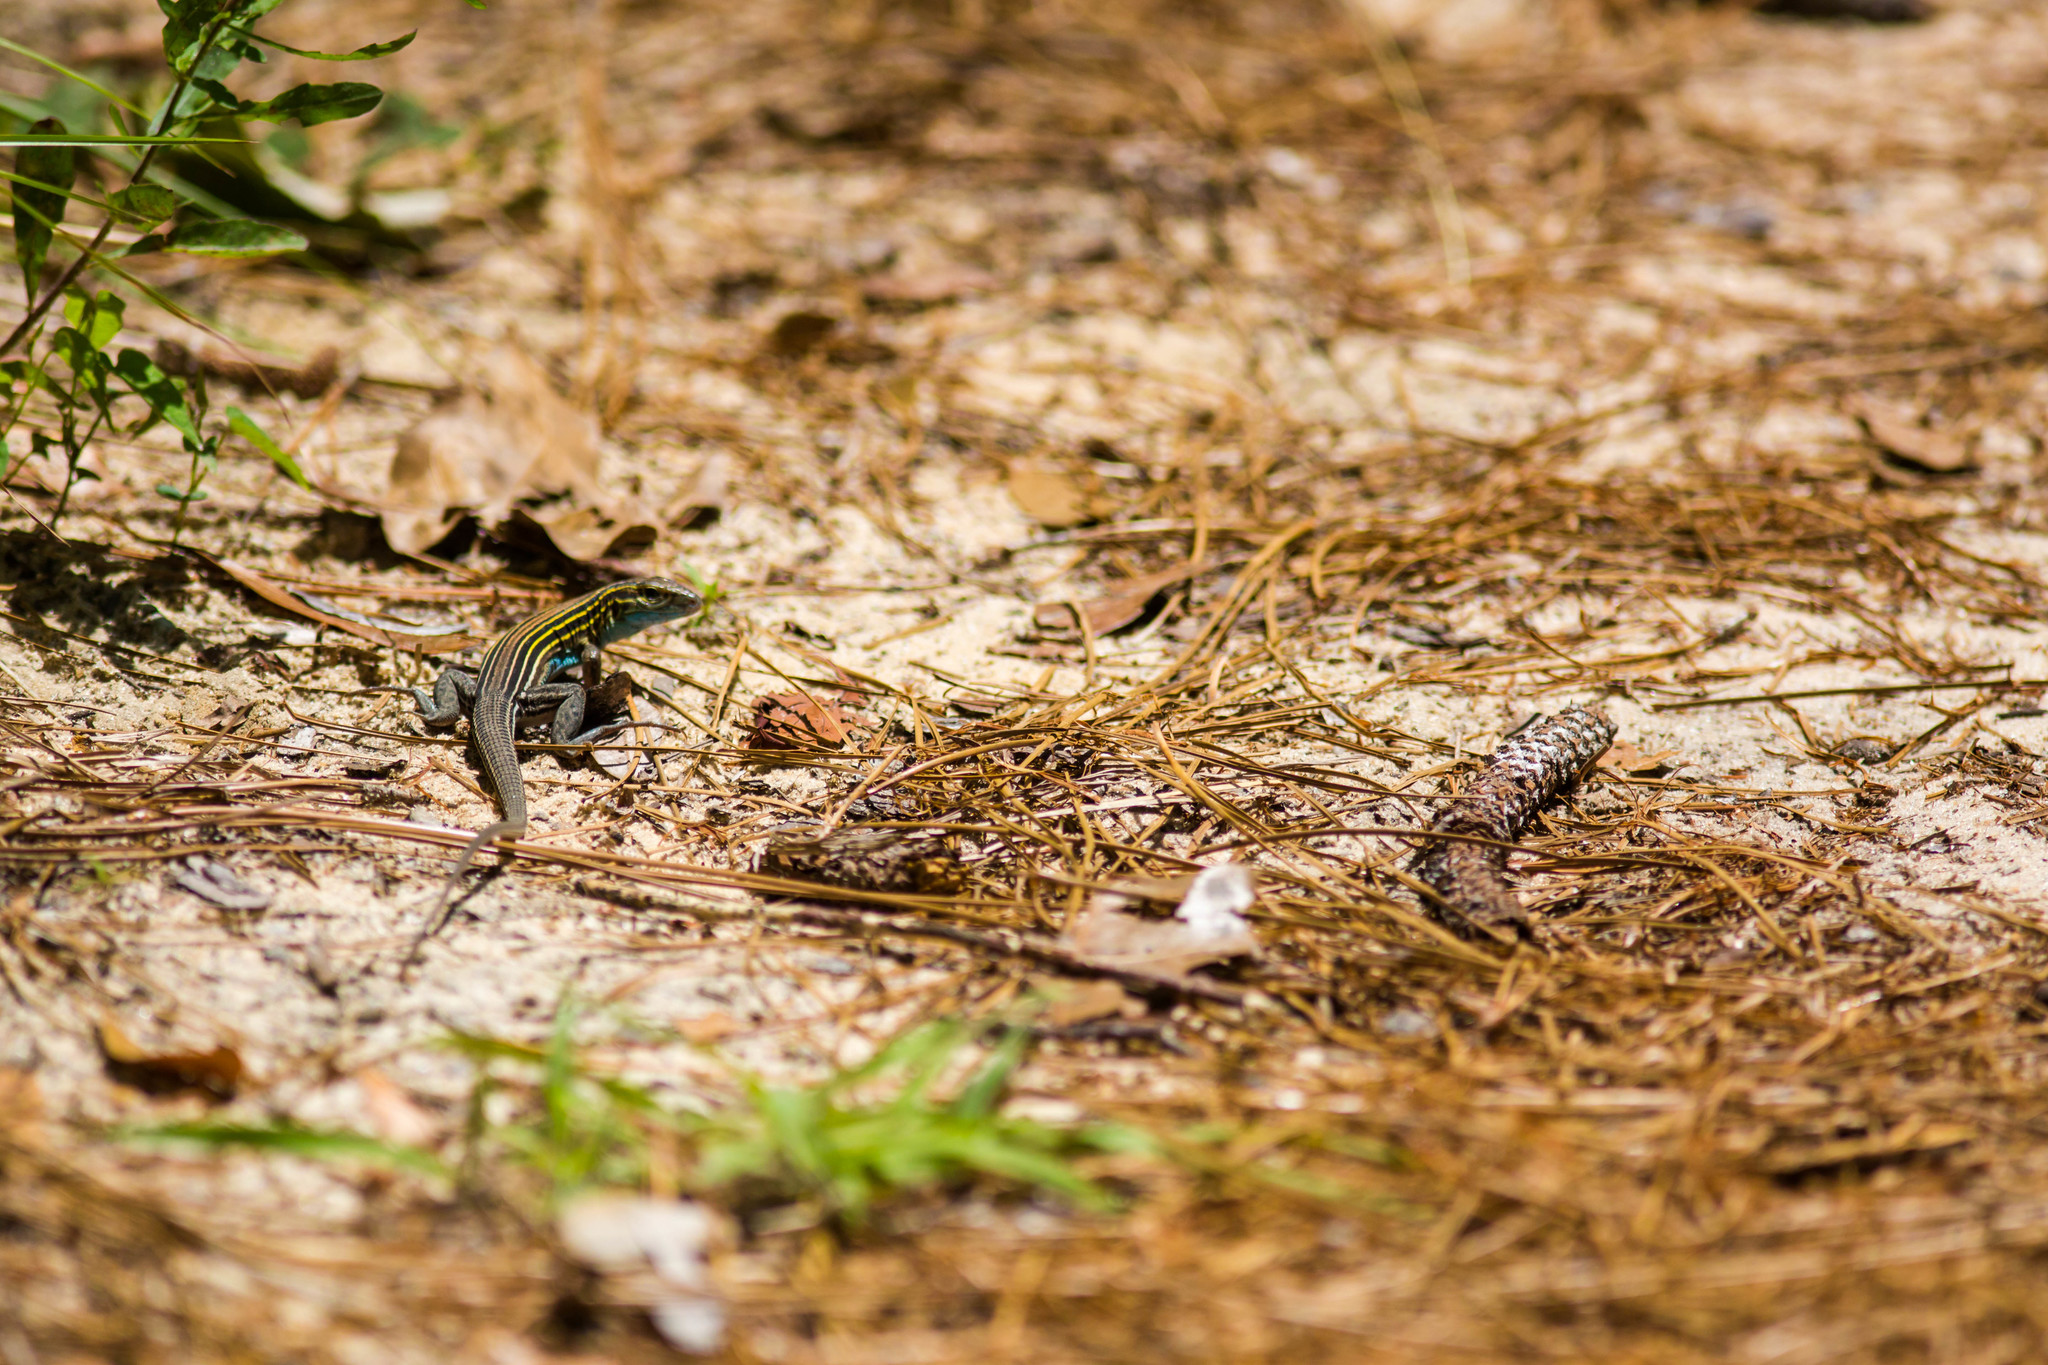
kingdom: Animalia
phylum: Chordata
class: Squamata
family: Teiidae
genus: Aspidoscelis
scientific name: Aspidoscelis sexlineatus
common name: Six-lined racerunner
